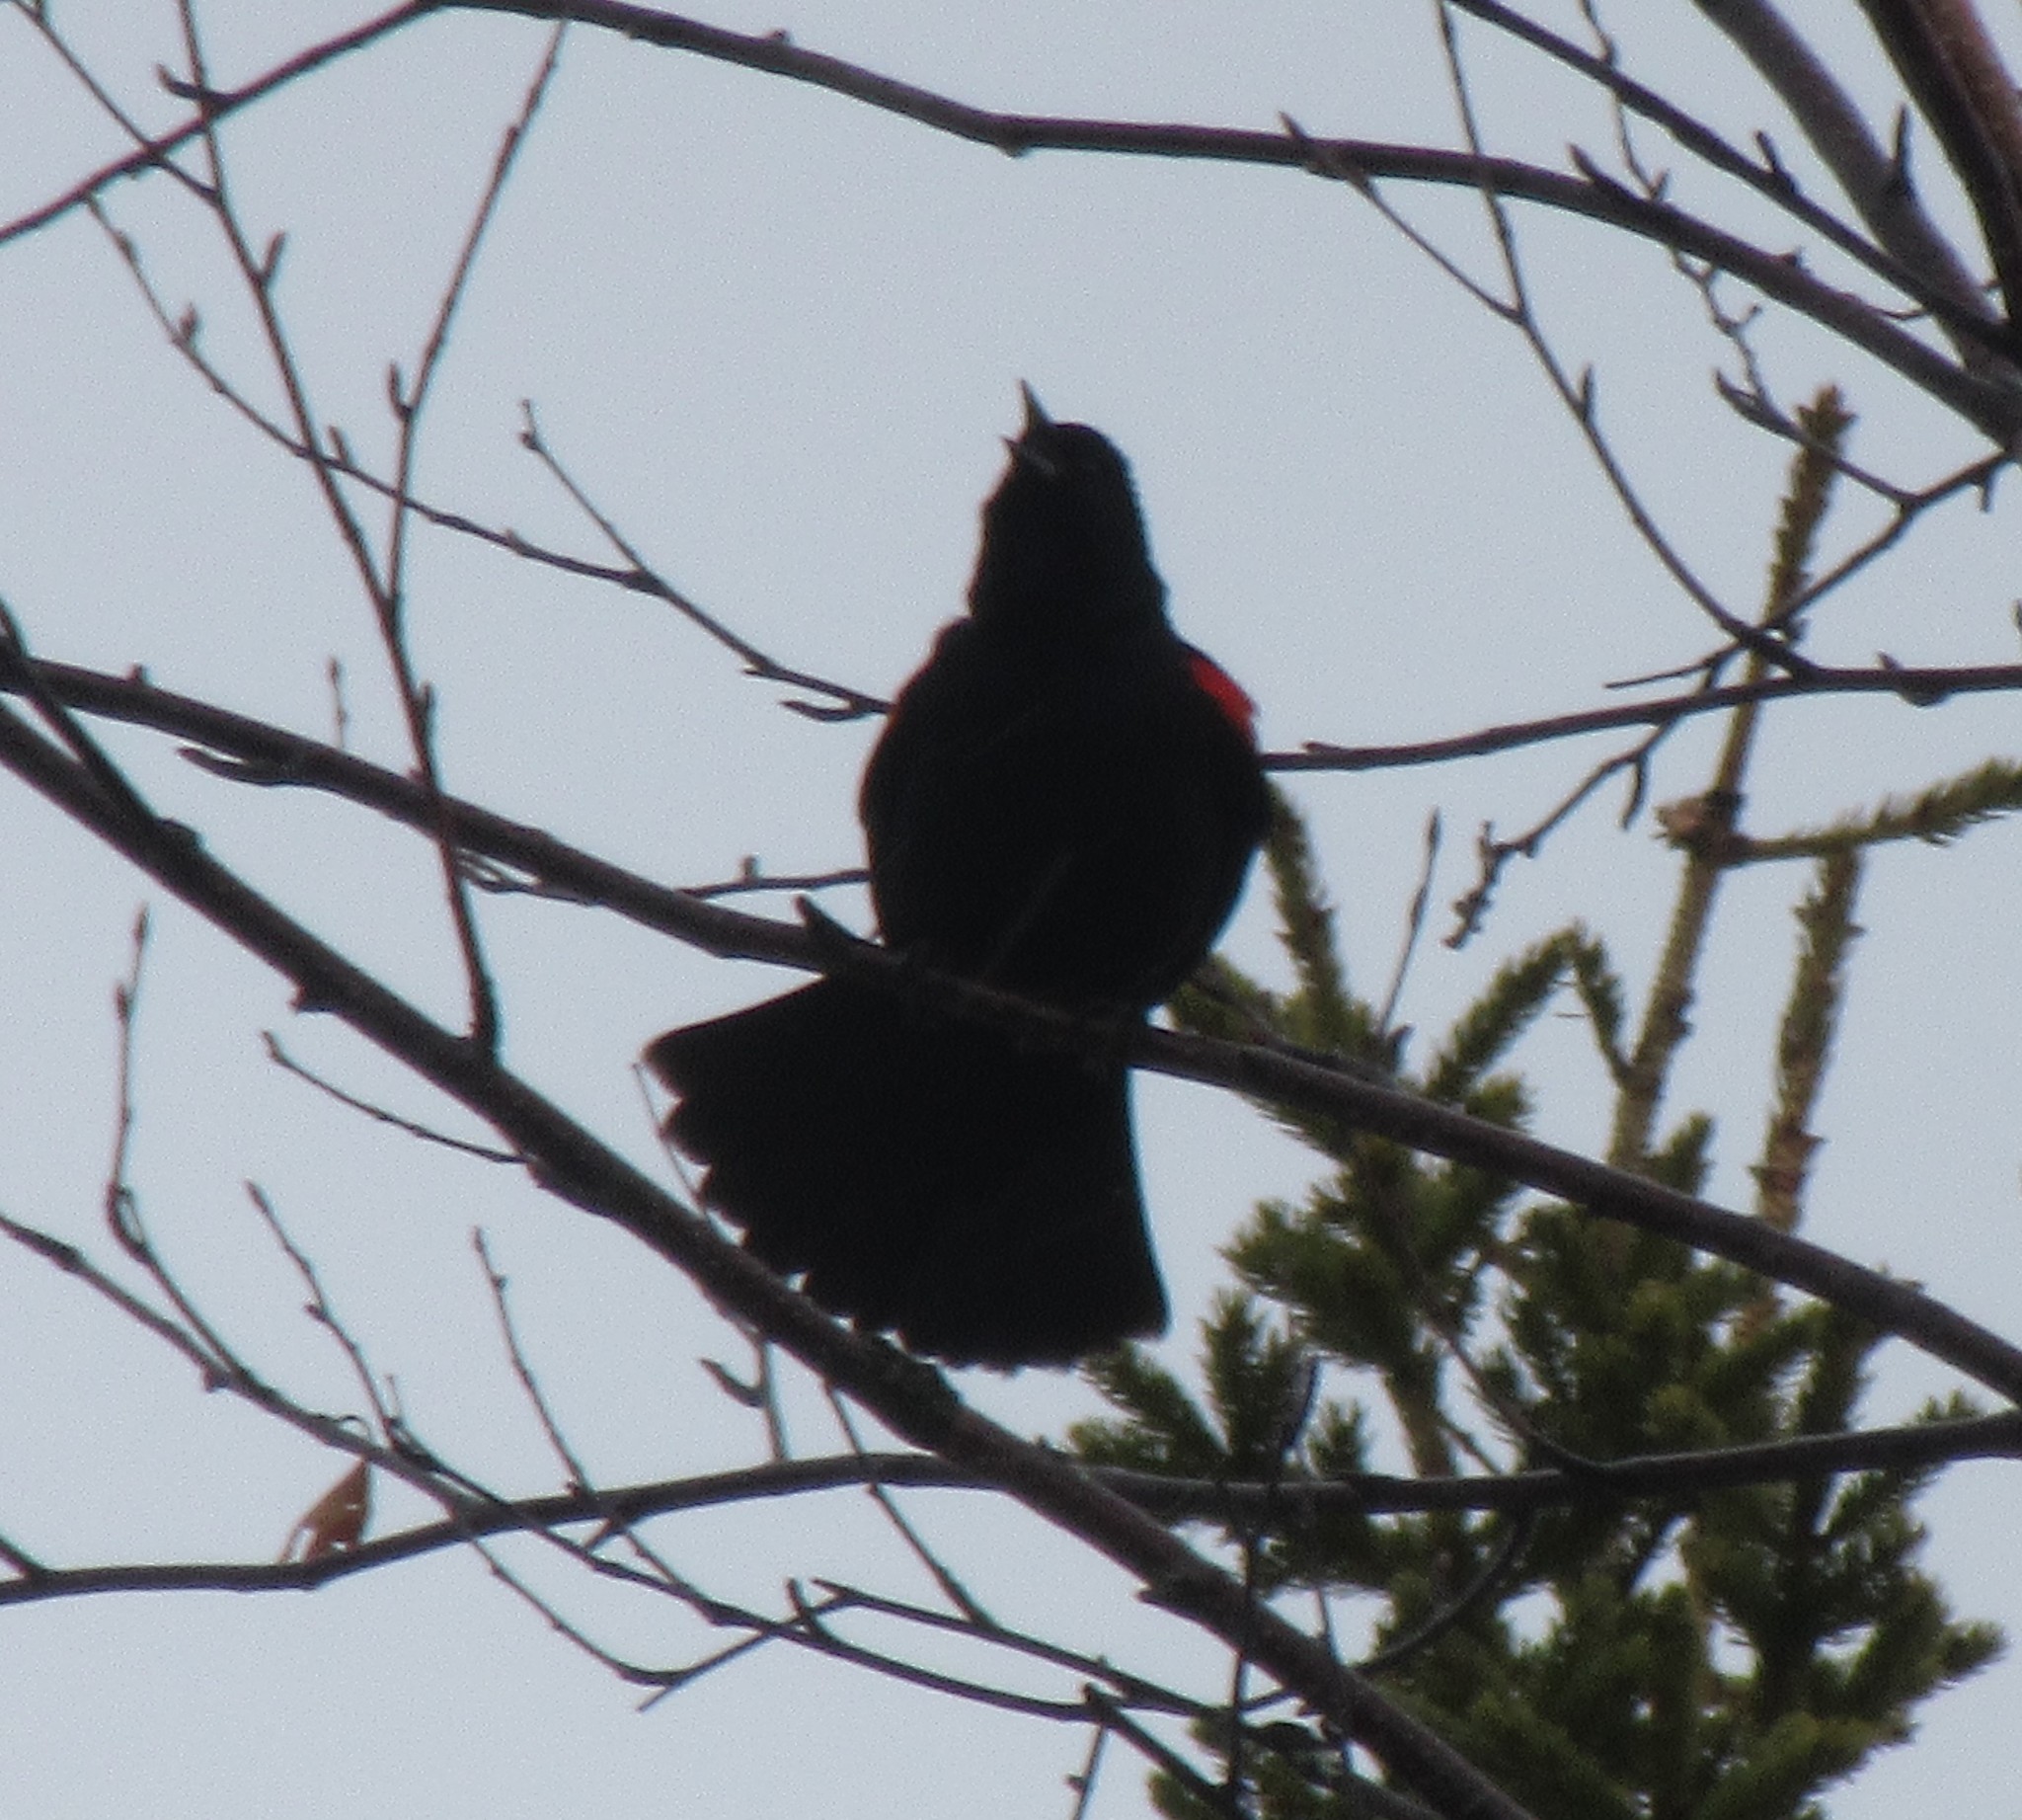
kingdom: Animalia
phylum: Chordata
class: Aves
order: Passeriformes
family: Icteridae
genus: Agelaius
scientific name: Agelaius phoeniceus
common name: Red-winged blackbird
